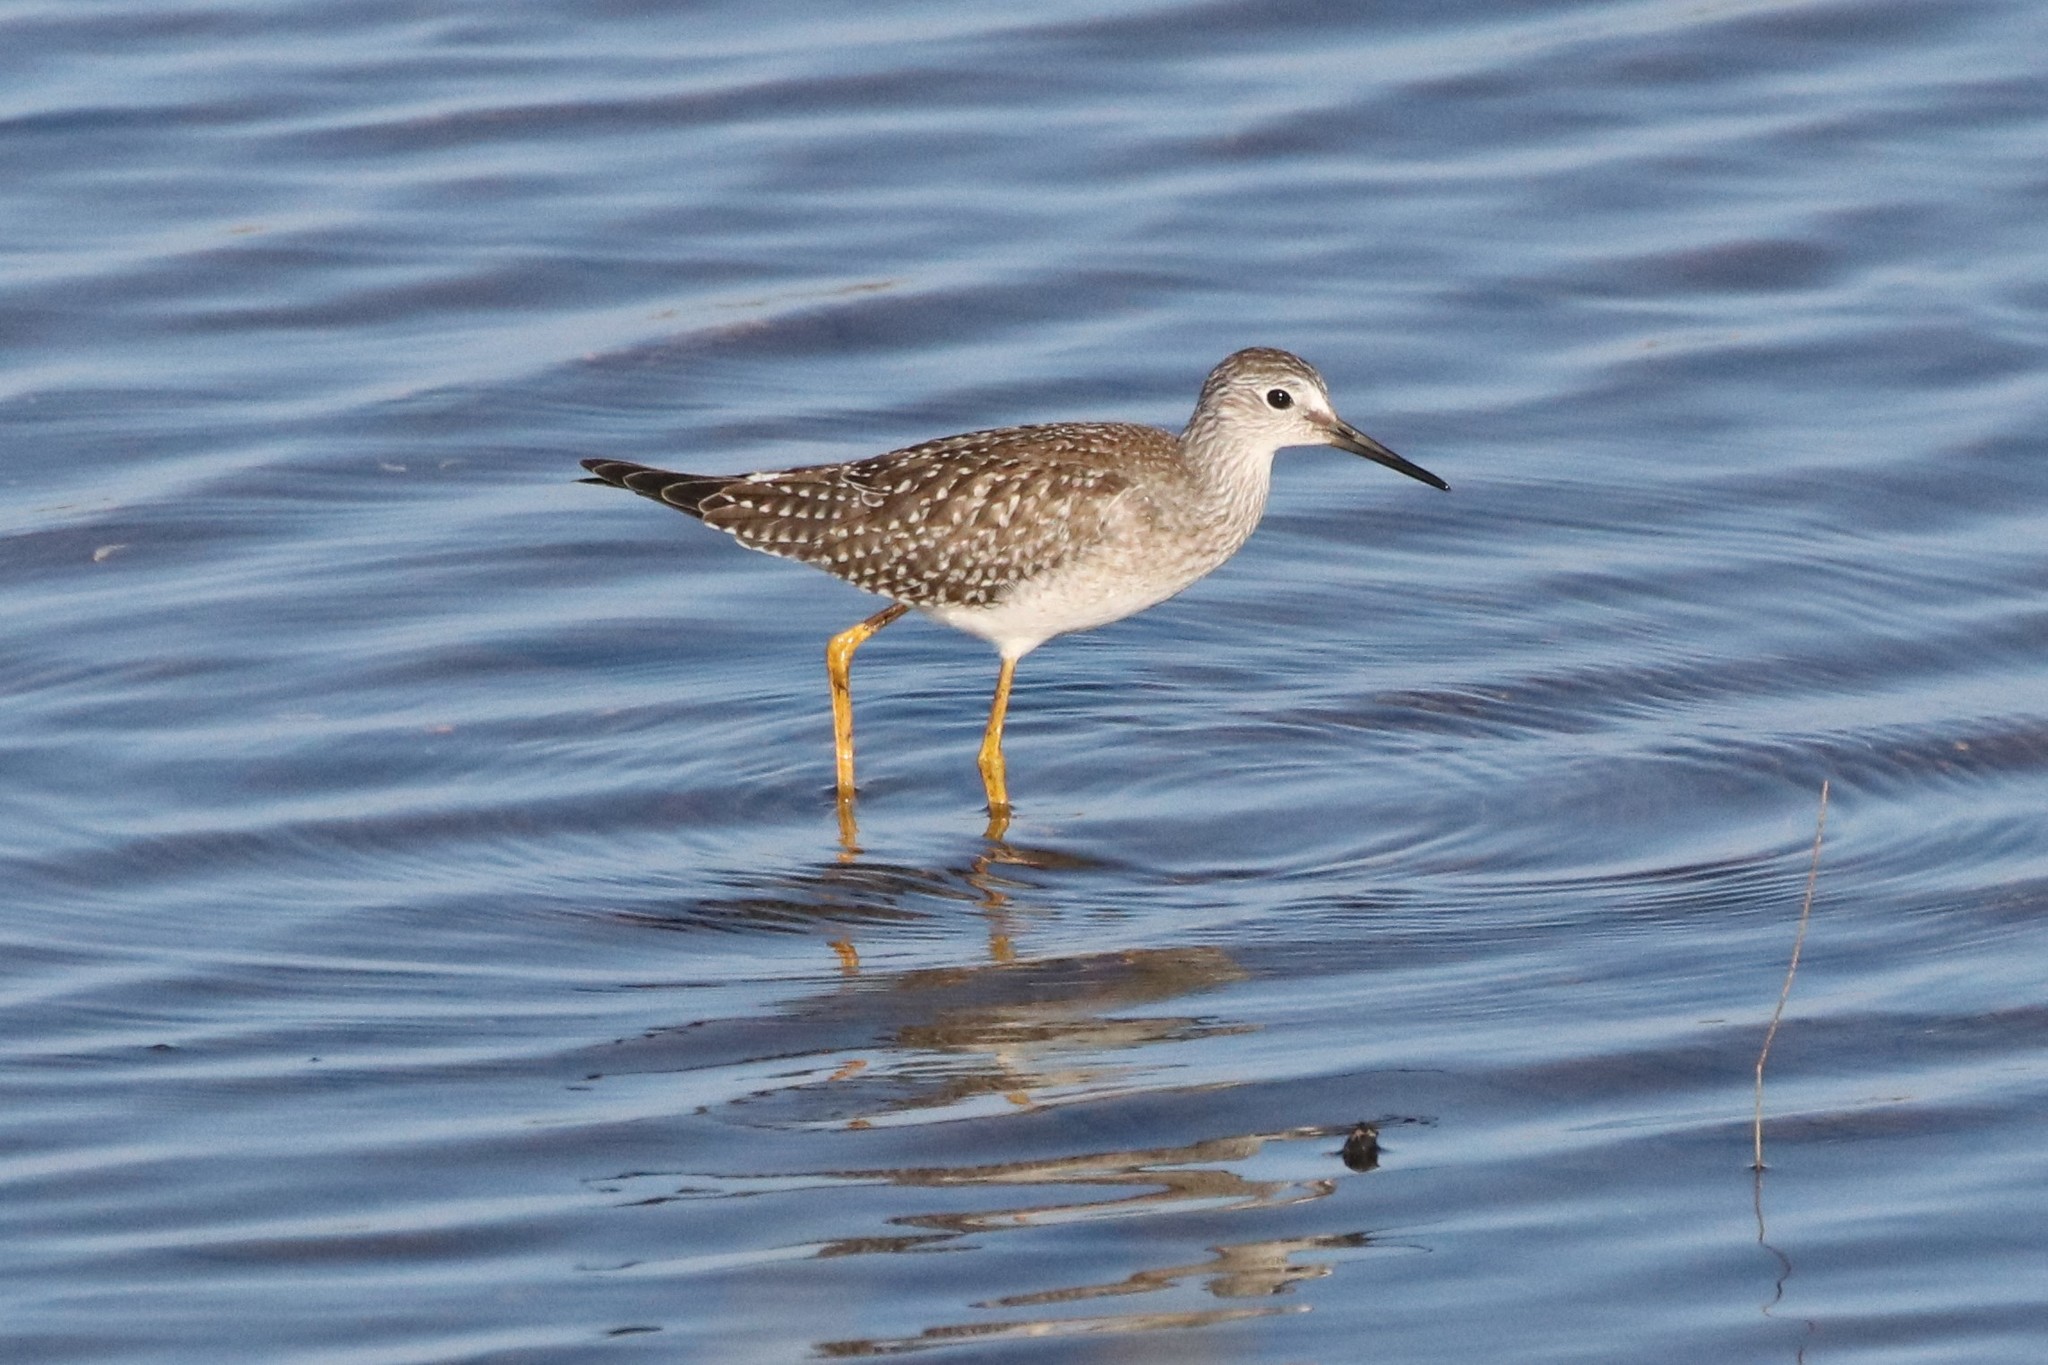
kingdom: Animalia
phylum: Chordata
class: Aves
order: Charadriiformes
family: Scolopacidae
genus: Tringa
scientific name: Tringa flavipes
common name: Lesser yellowlegs
